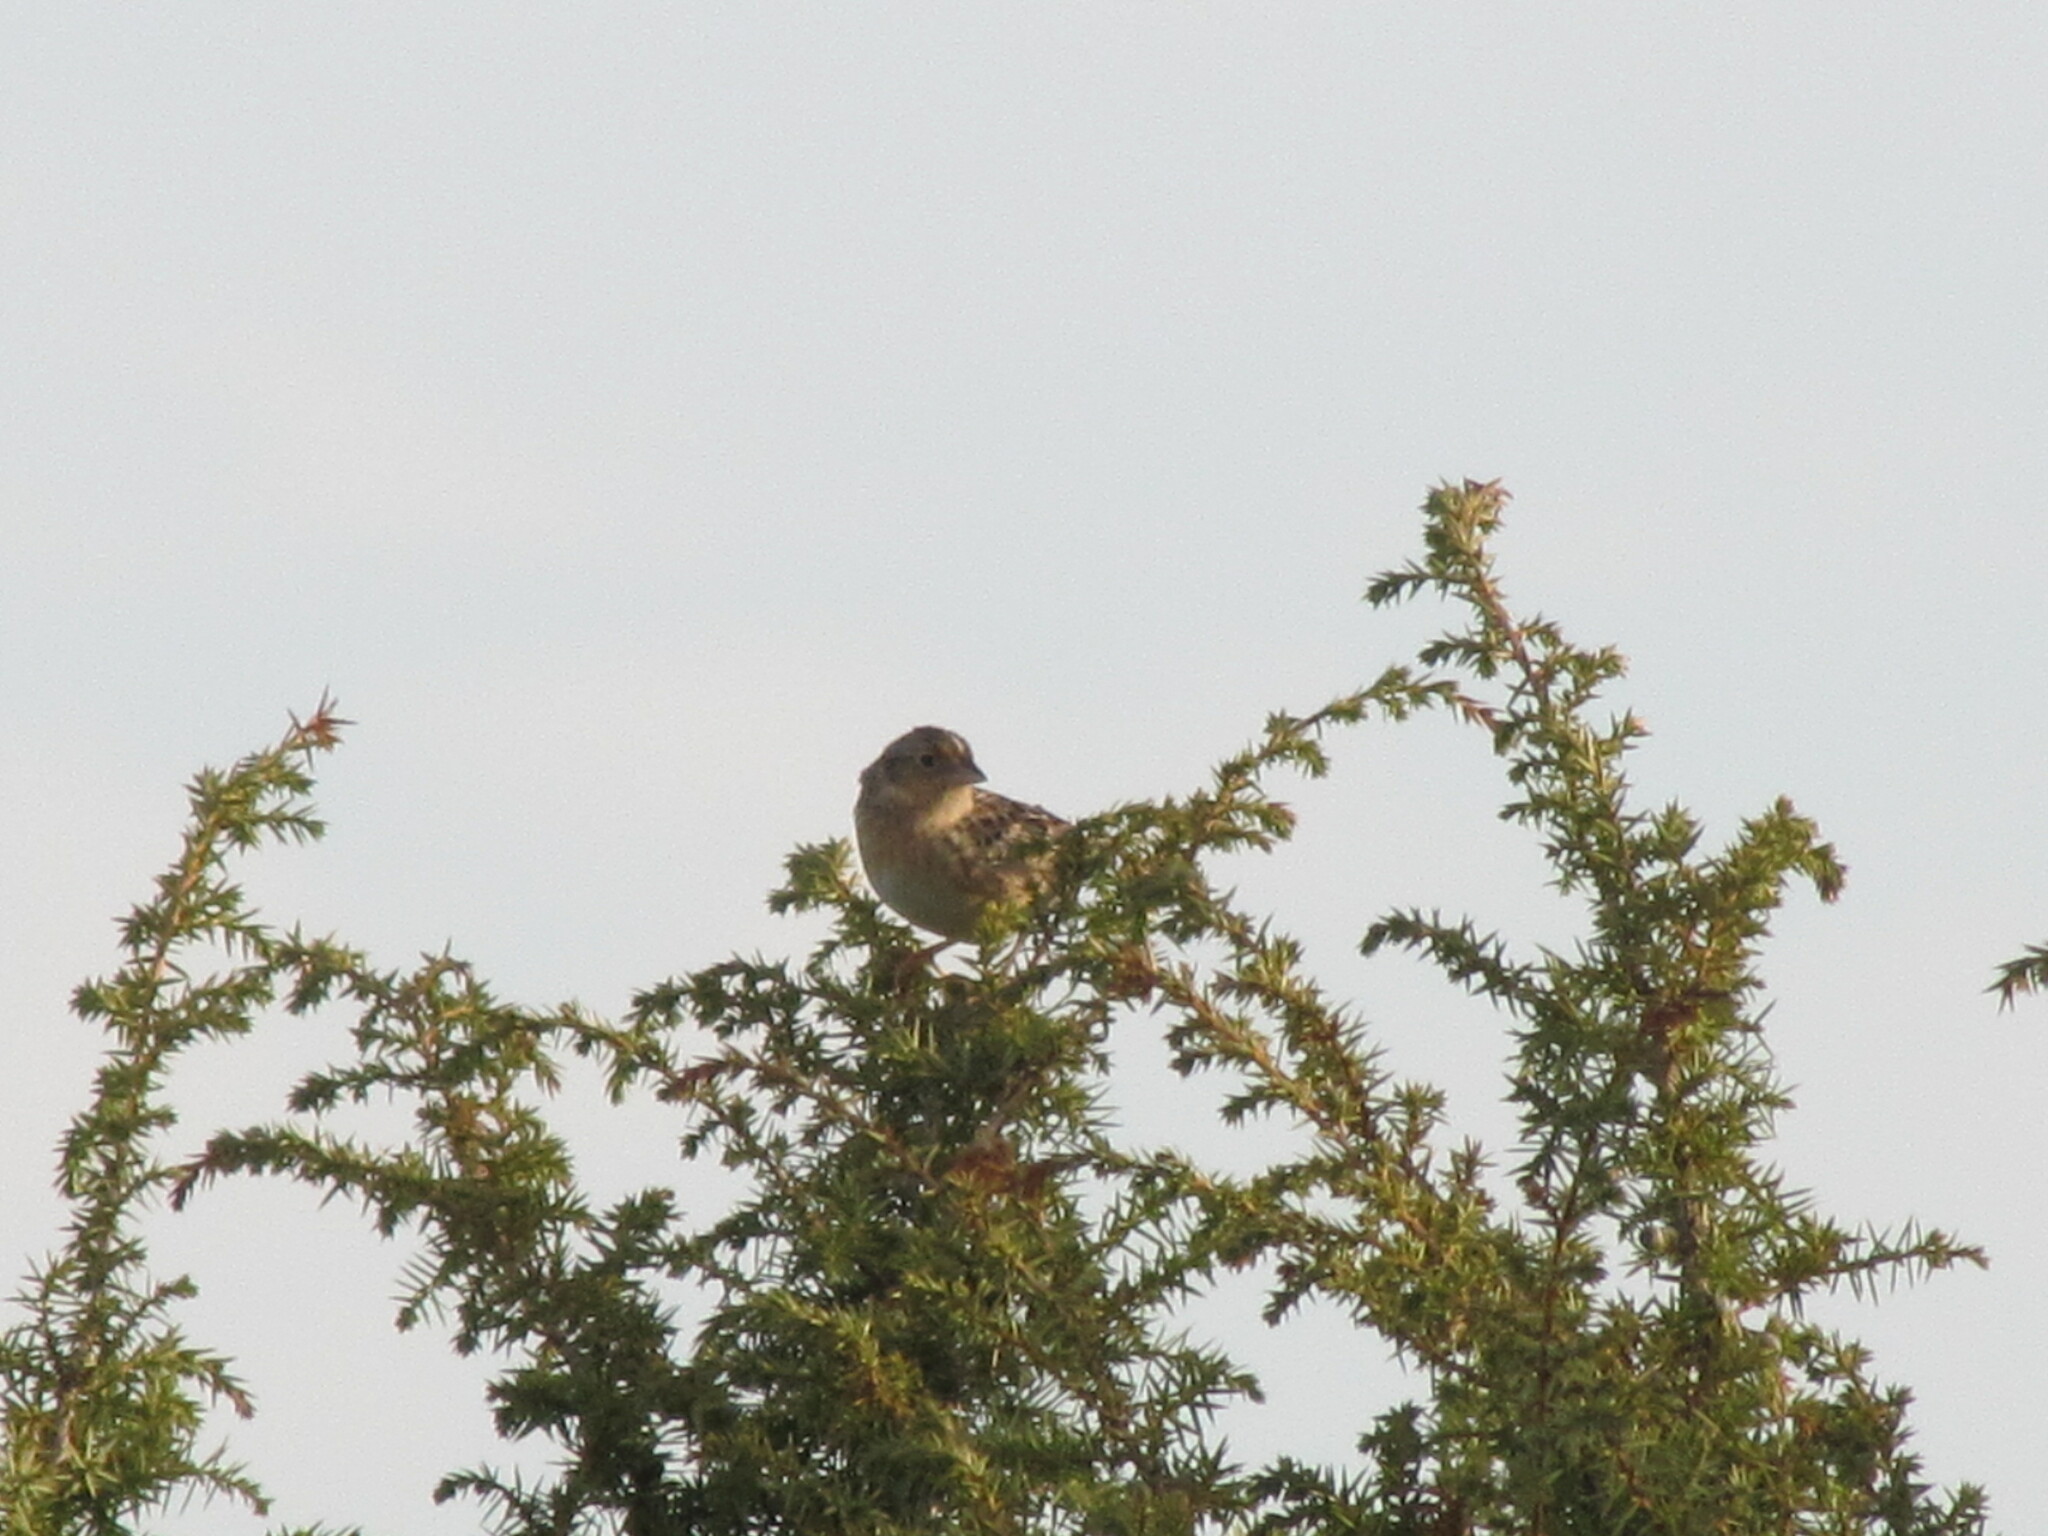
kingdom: Animalia
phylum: Chordata
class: Aves
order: Passeriformes
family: Passerellidae
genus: Ammodramus
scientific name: Ammodramus savannarum
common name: Grasshopper sparrow
